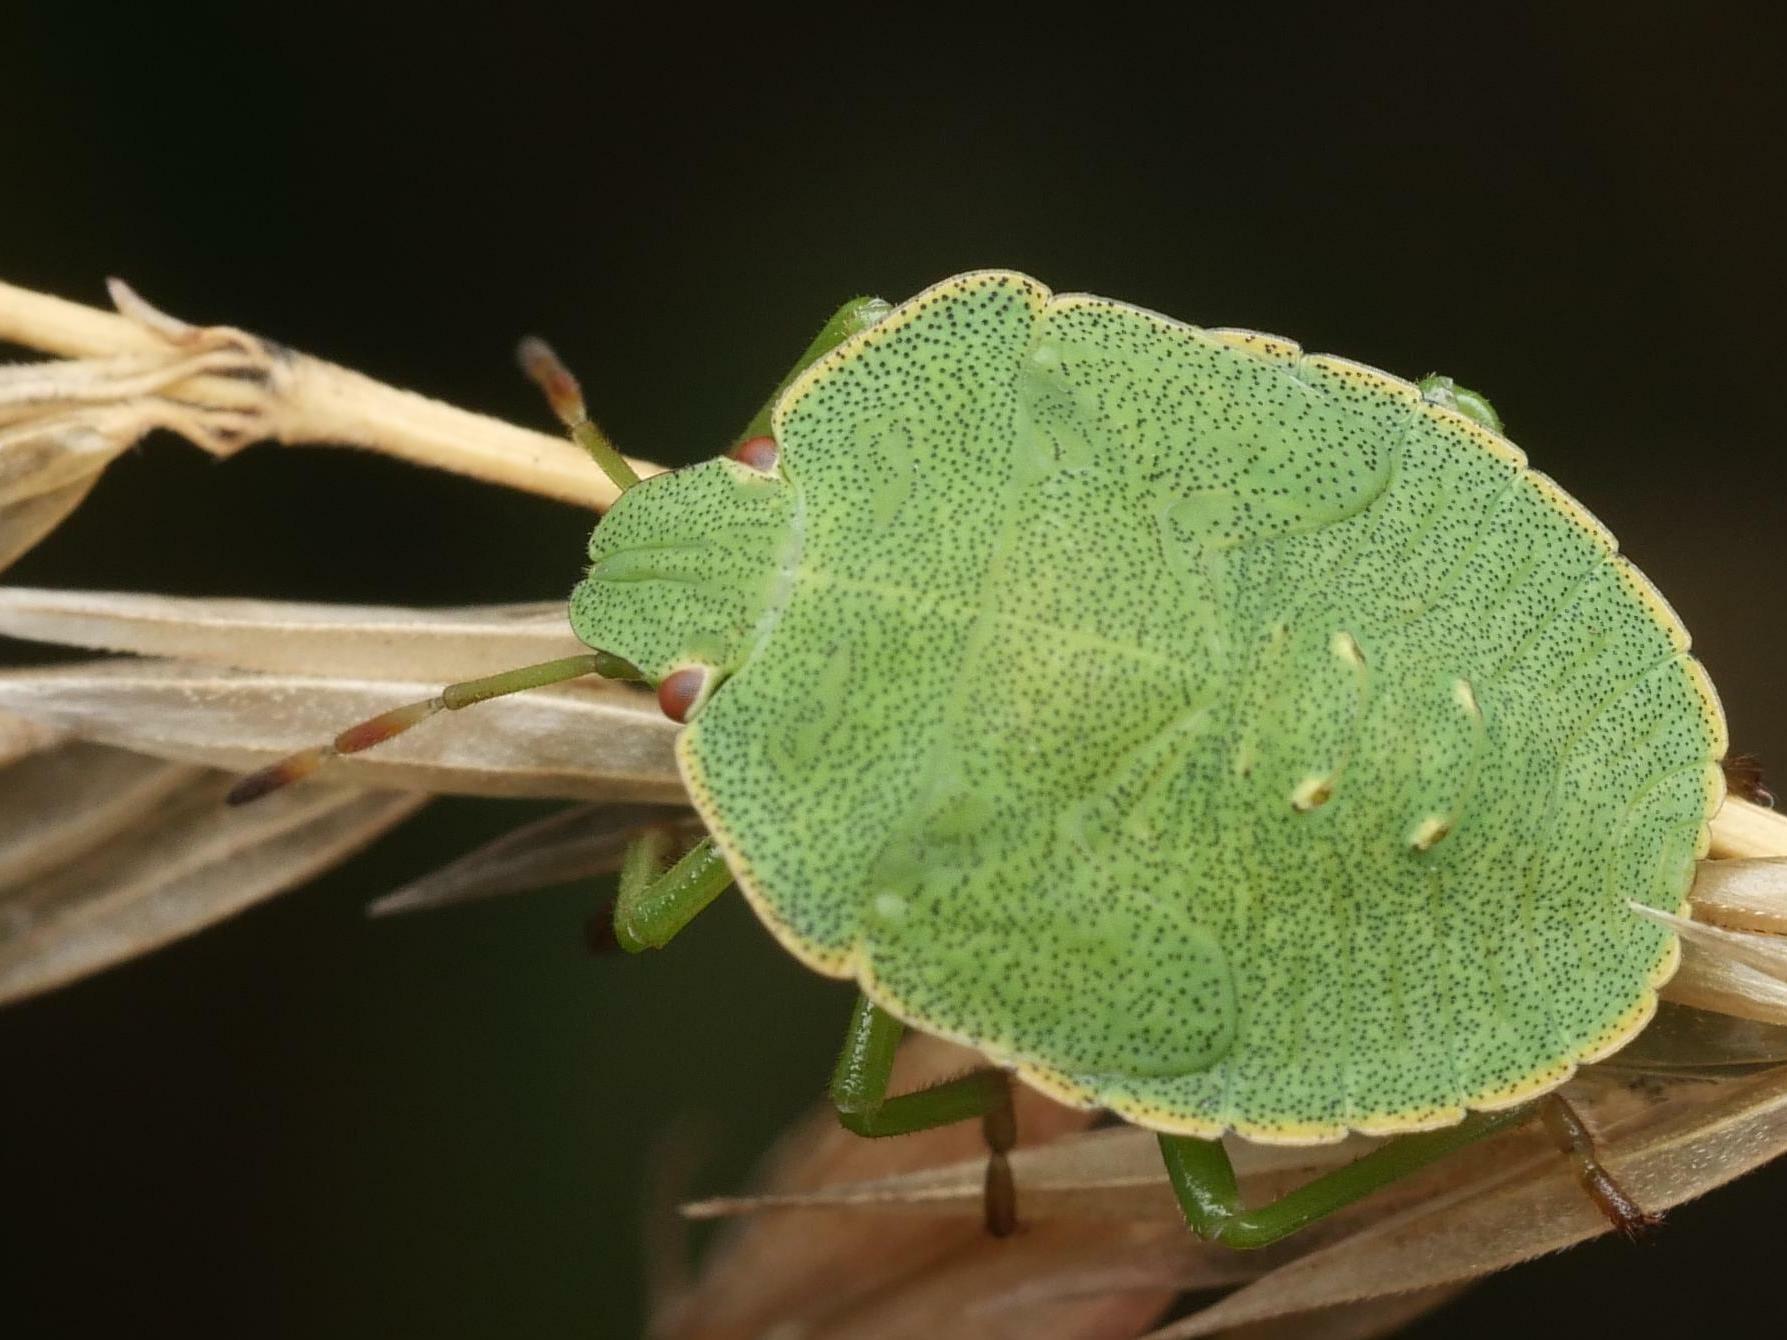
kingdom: Animalia
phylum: Arthropoda
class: Insecta
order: Hemiptera
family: Pentatomidae
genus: Palomena
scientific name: Palomena prasina
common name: Green shieldbug
